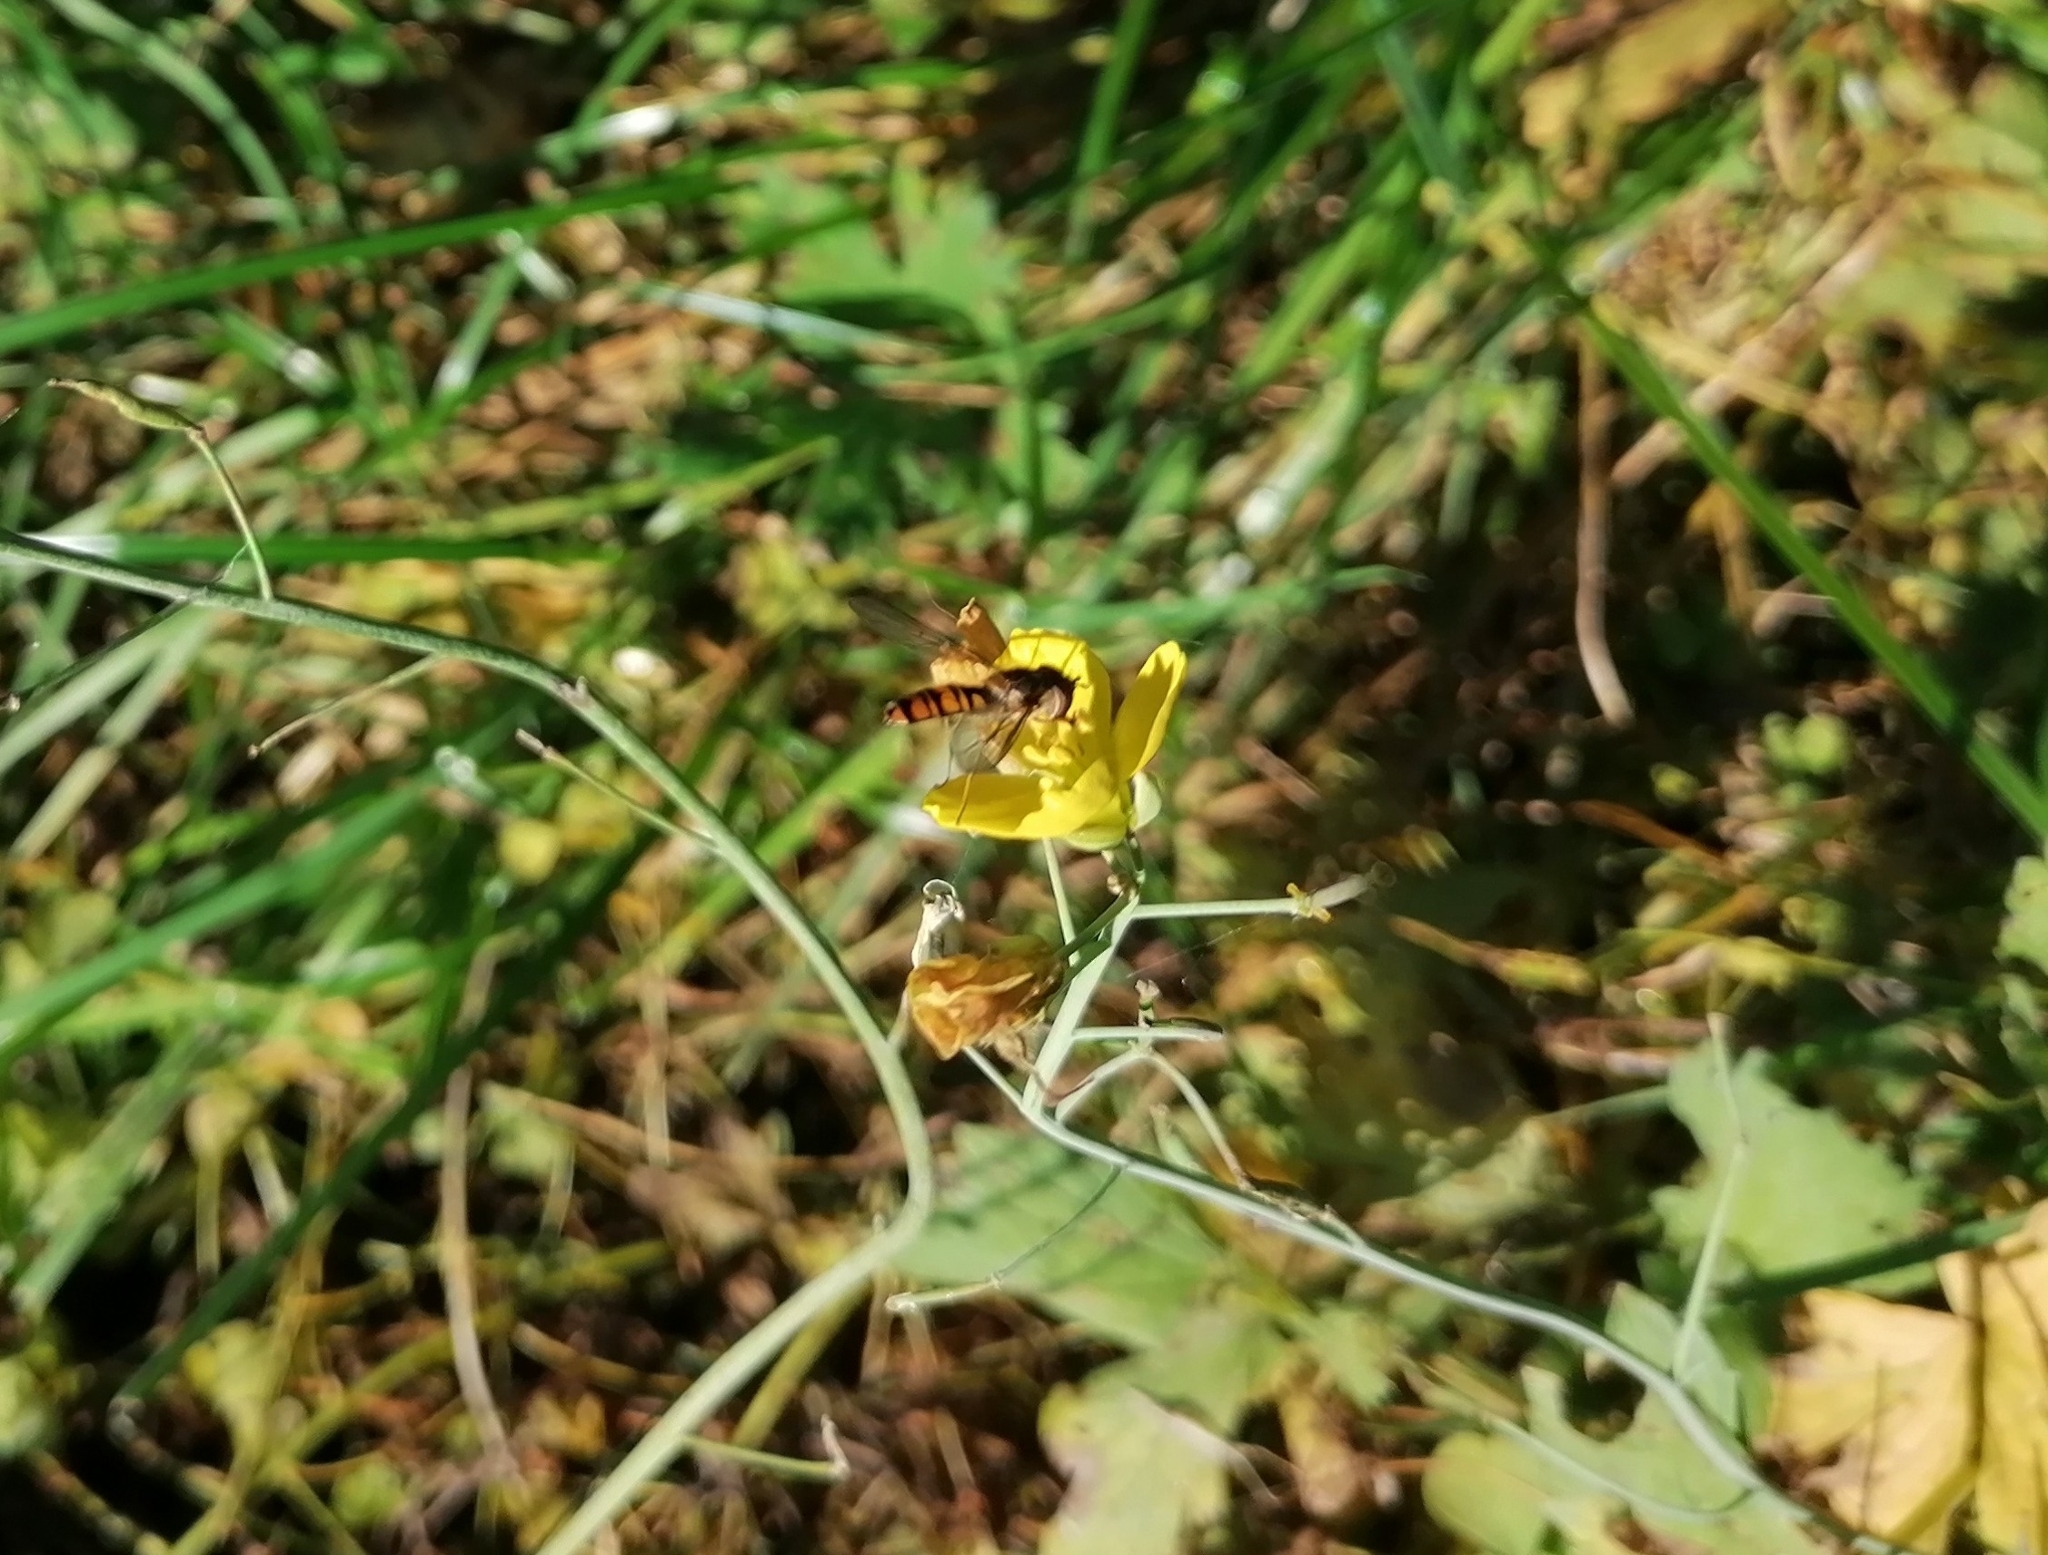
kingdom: Animalia
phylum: Arthropoda
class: Insecta
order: Diptera
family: Syrphidae
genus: Episyrphus
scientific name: Episyrphus balteatus
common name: Marmalade hoverfly
